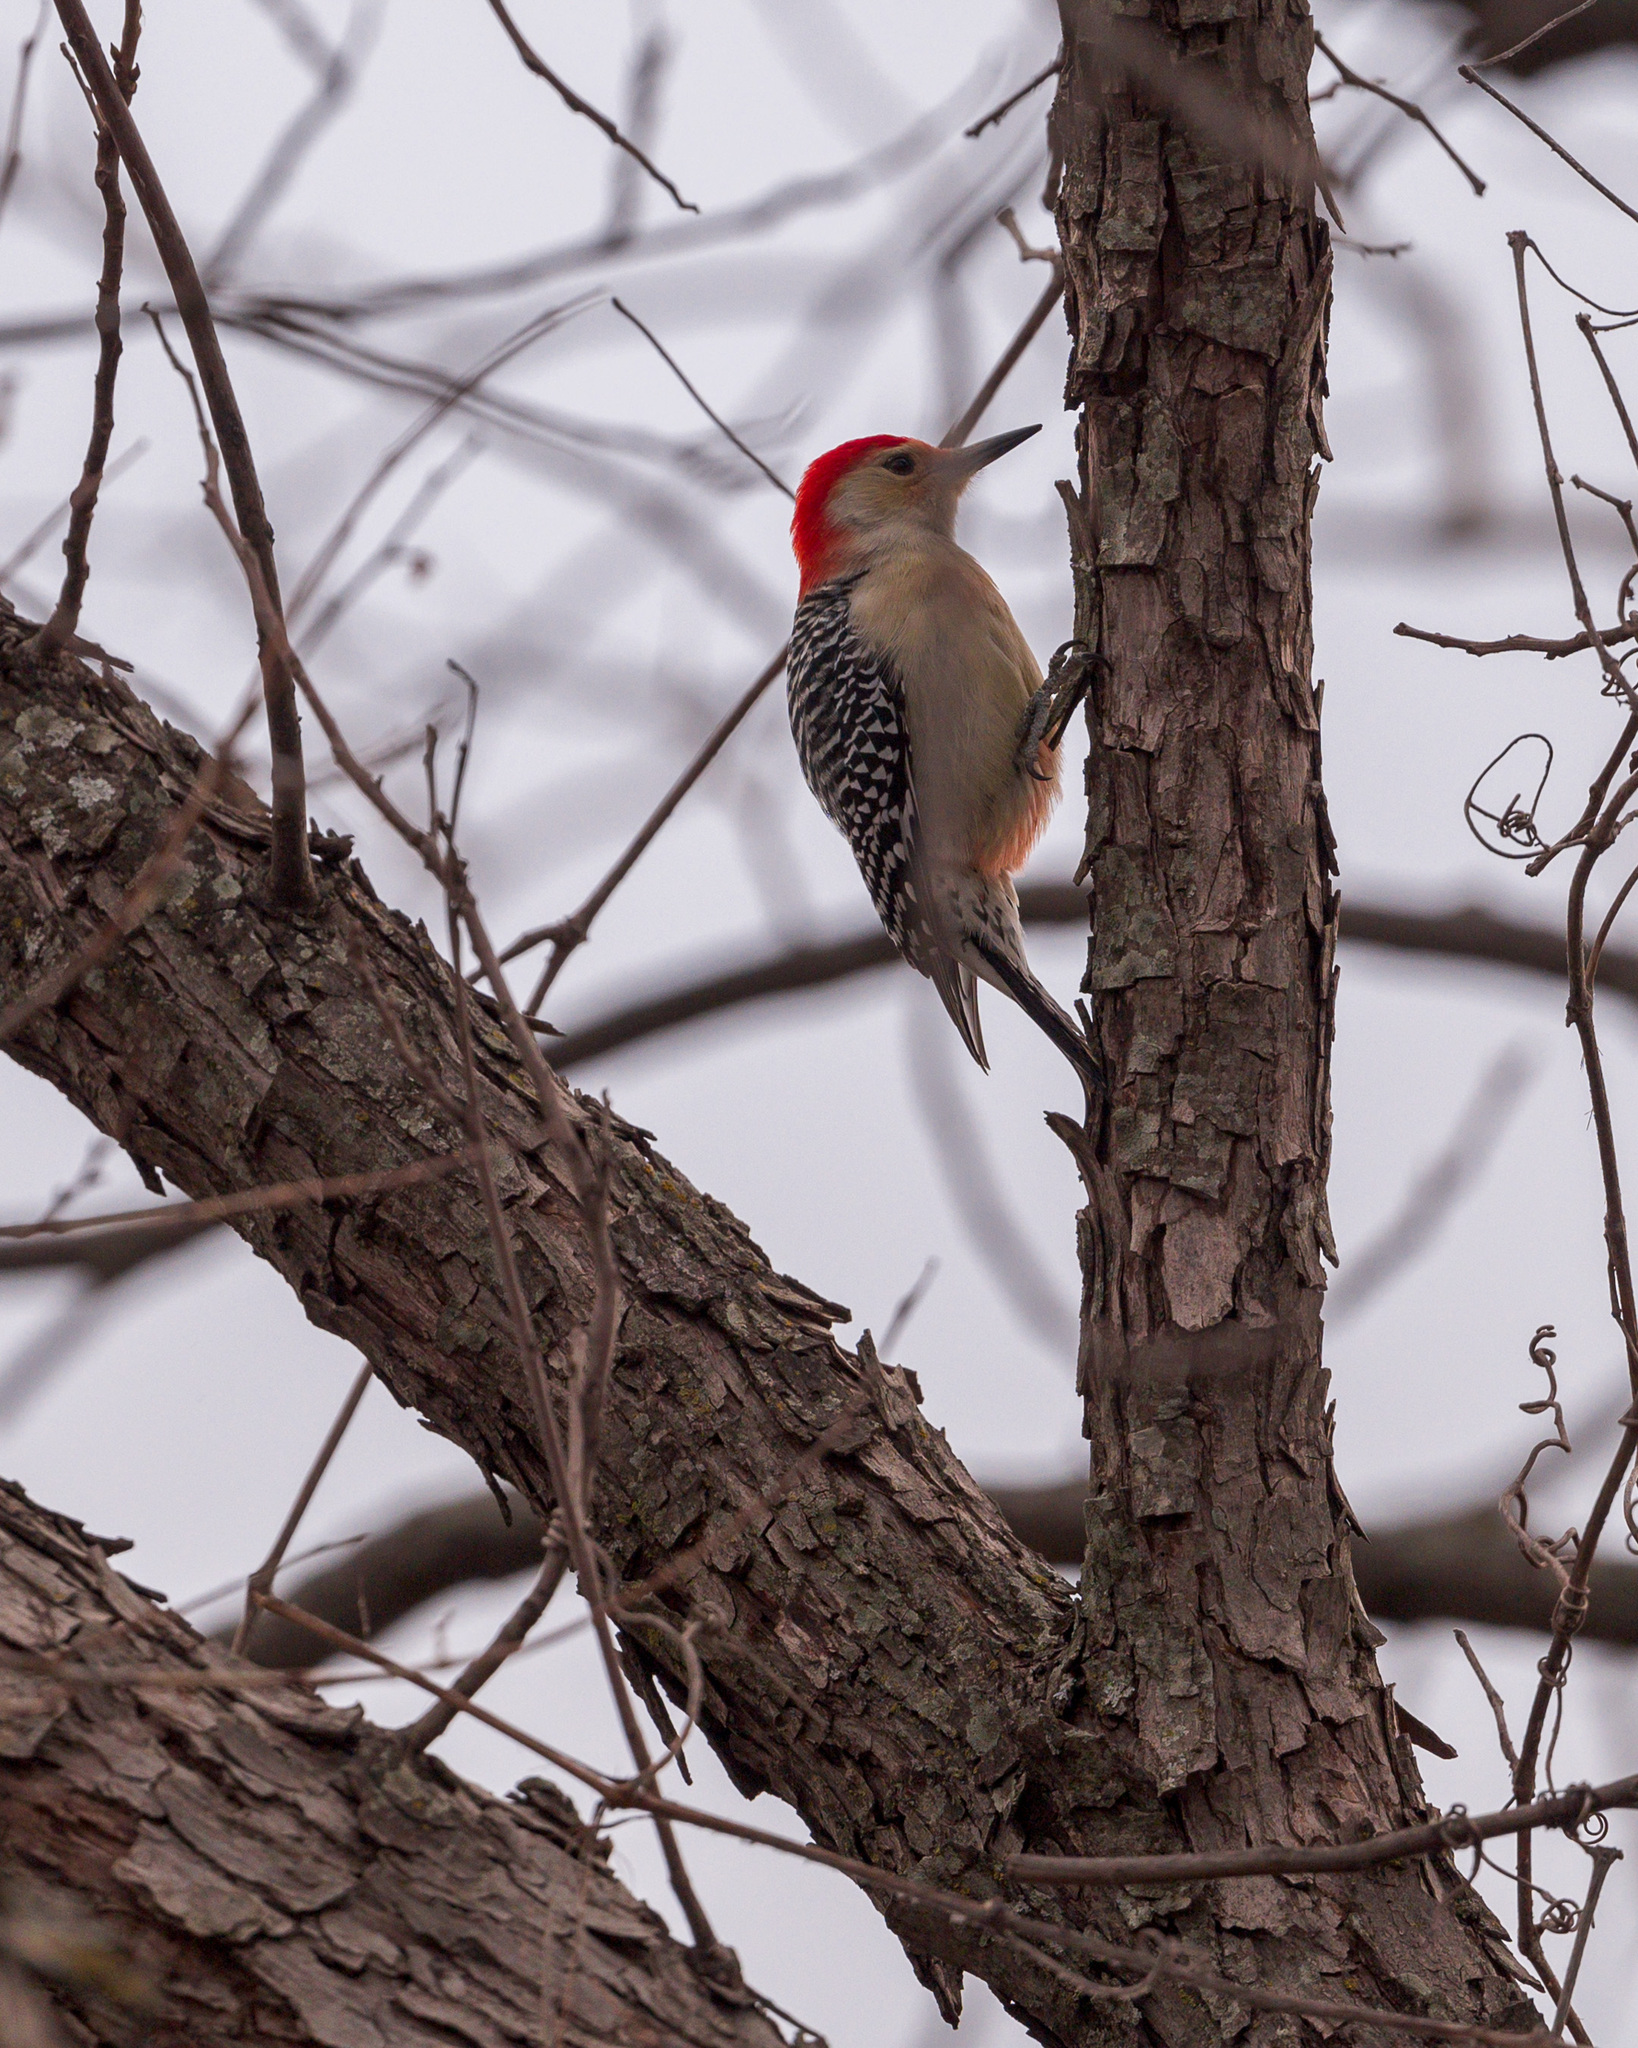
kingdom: Animalia
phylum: Chordata
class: Aves
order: Piciformes
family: Picidae
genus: Melanerpes
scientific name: Melanerpes carolinus
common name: Red-bellied woodpecker
